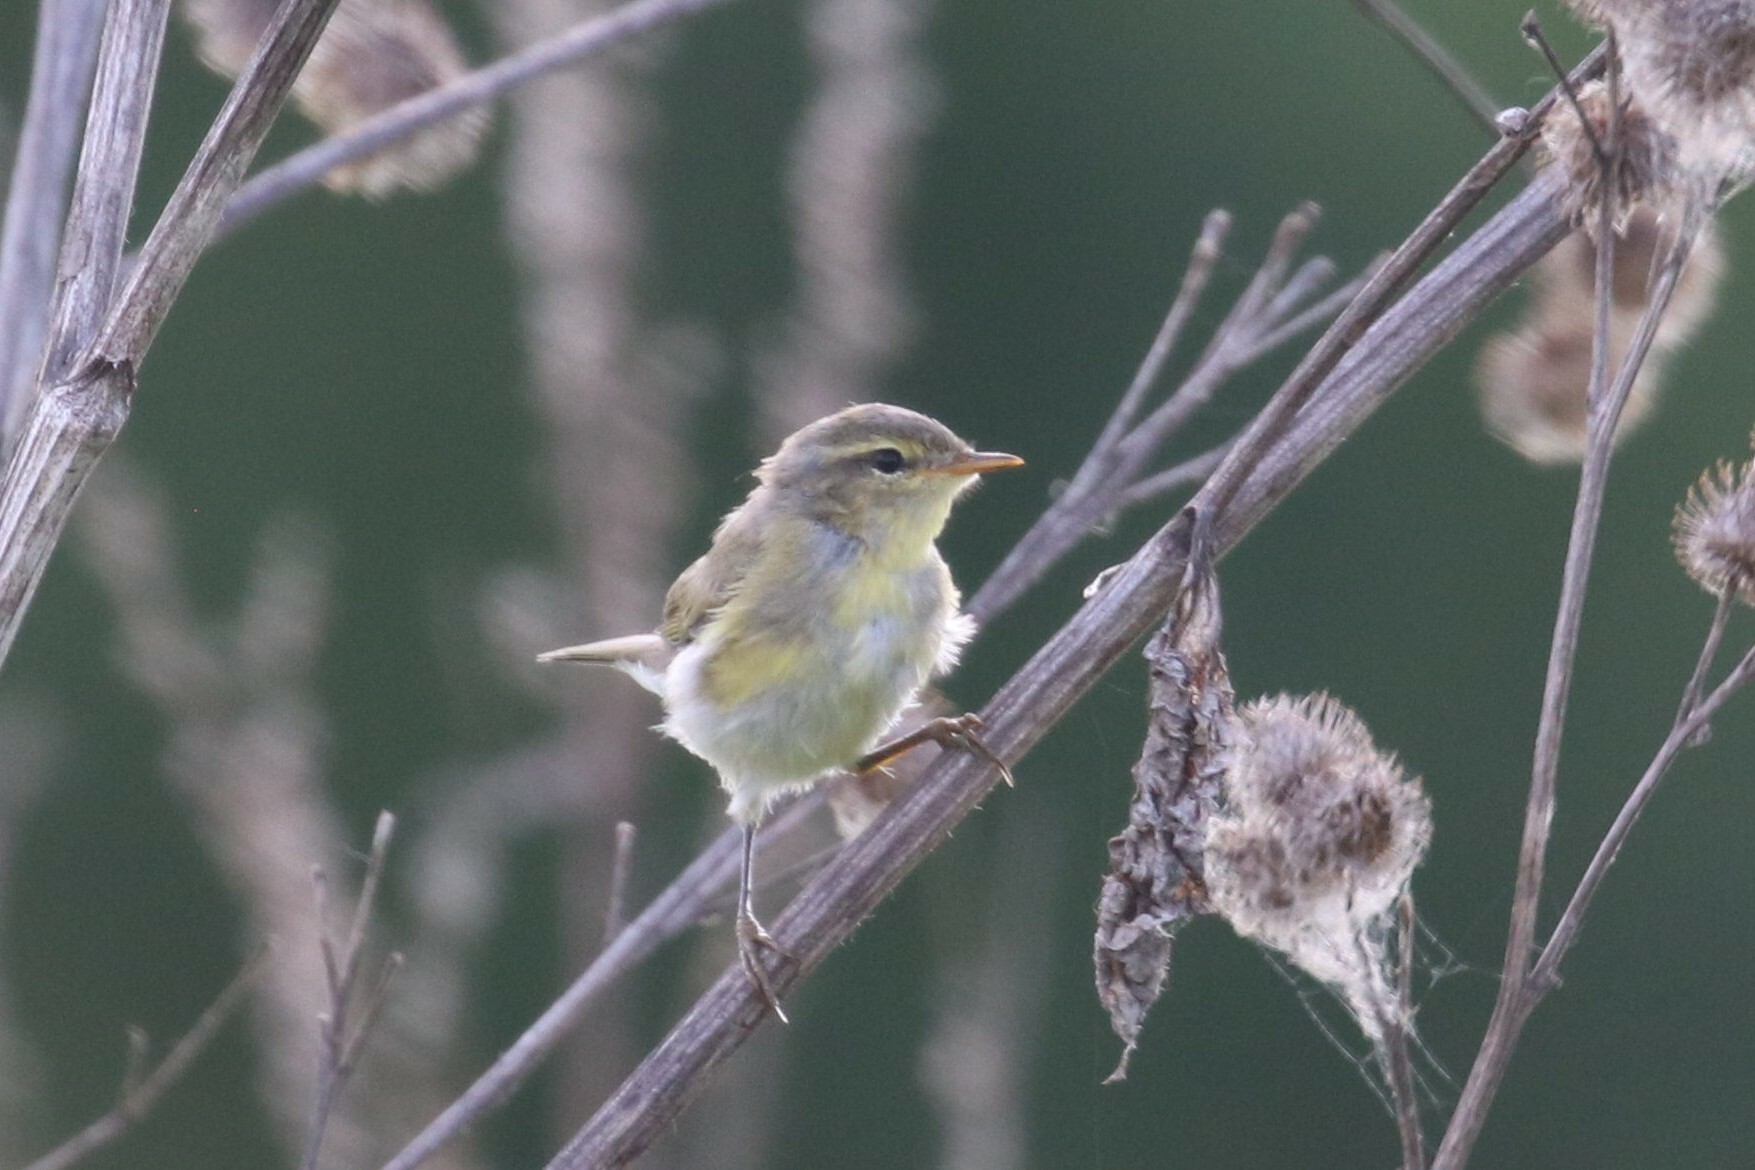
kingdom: Animalia
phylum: Chordata
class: Aves
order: Passeriformes
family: Phylloscopidae
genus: Phylloscopus
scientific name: Phylloscopus trochilus
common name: Willow warbler
